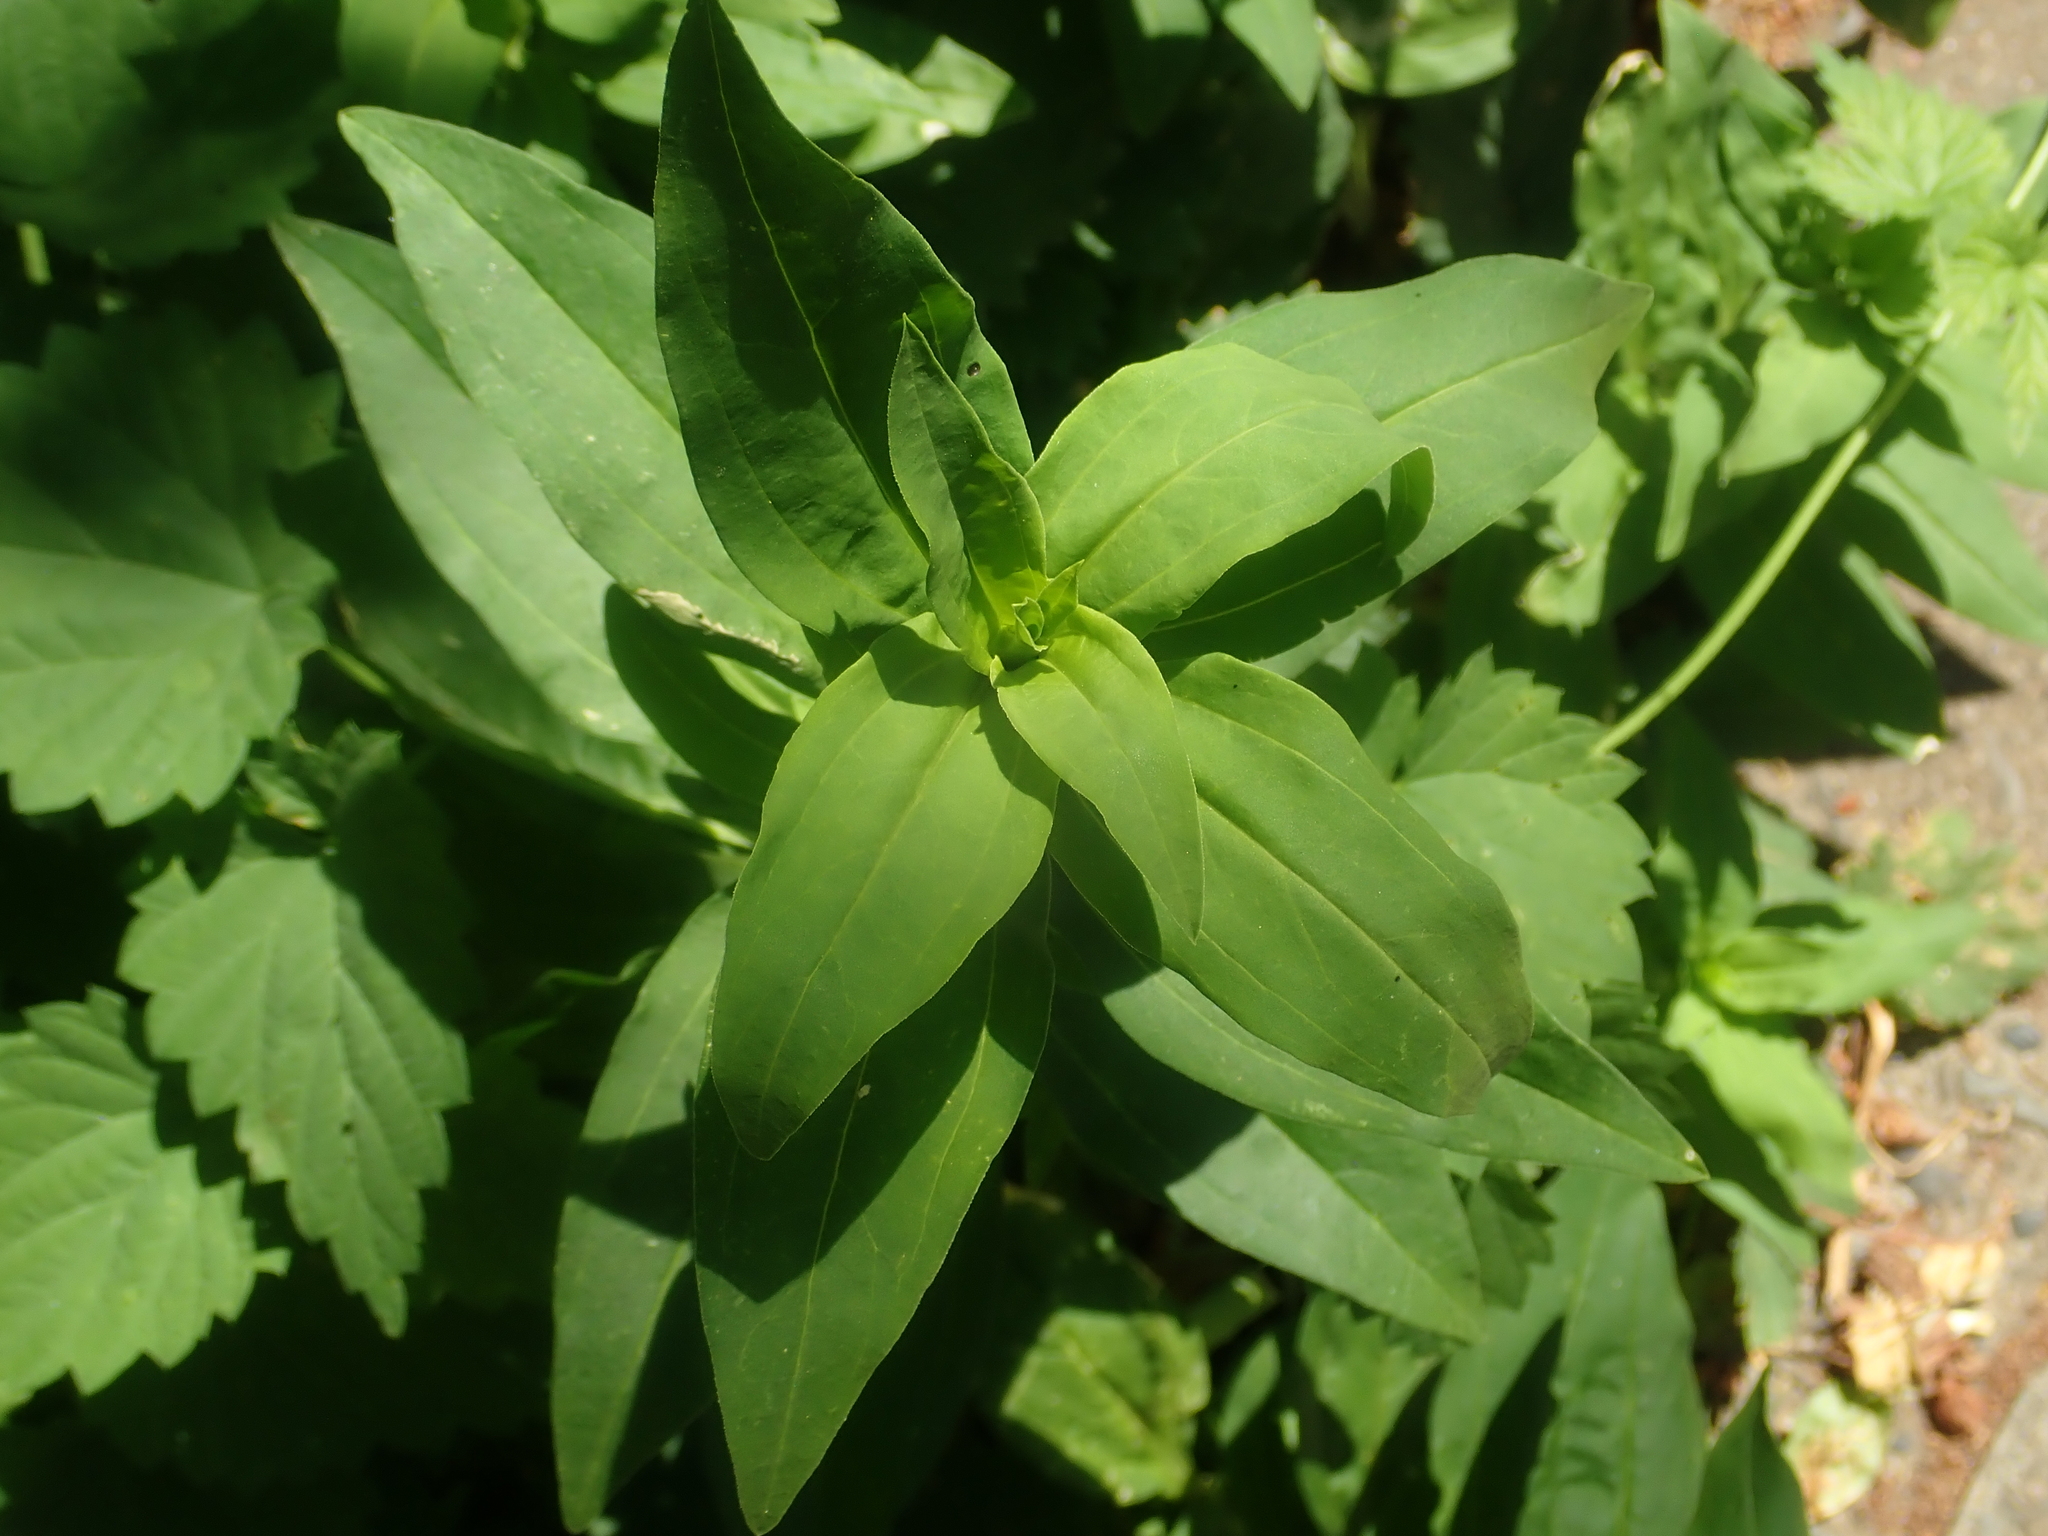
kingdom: Plantae
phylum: Tracheophyta
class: Magnoliopsida
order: Caryophyllales
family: Caryophyllaceae
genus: Saponaria
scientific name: Saponaria officinalis
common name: Soapwort
